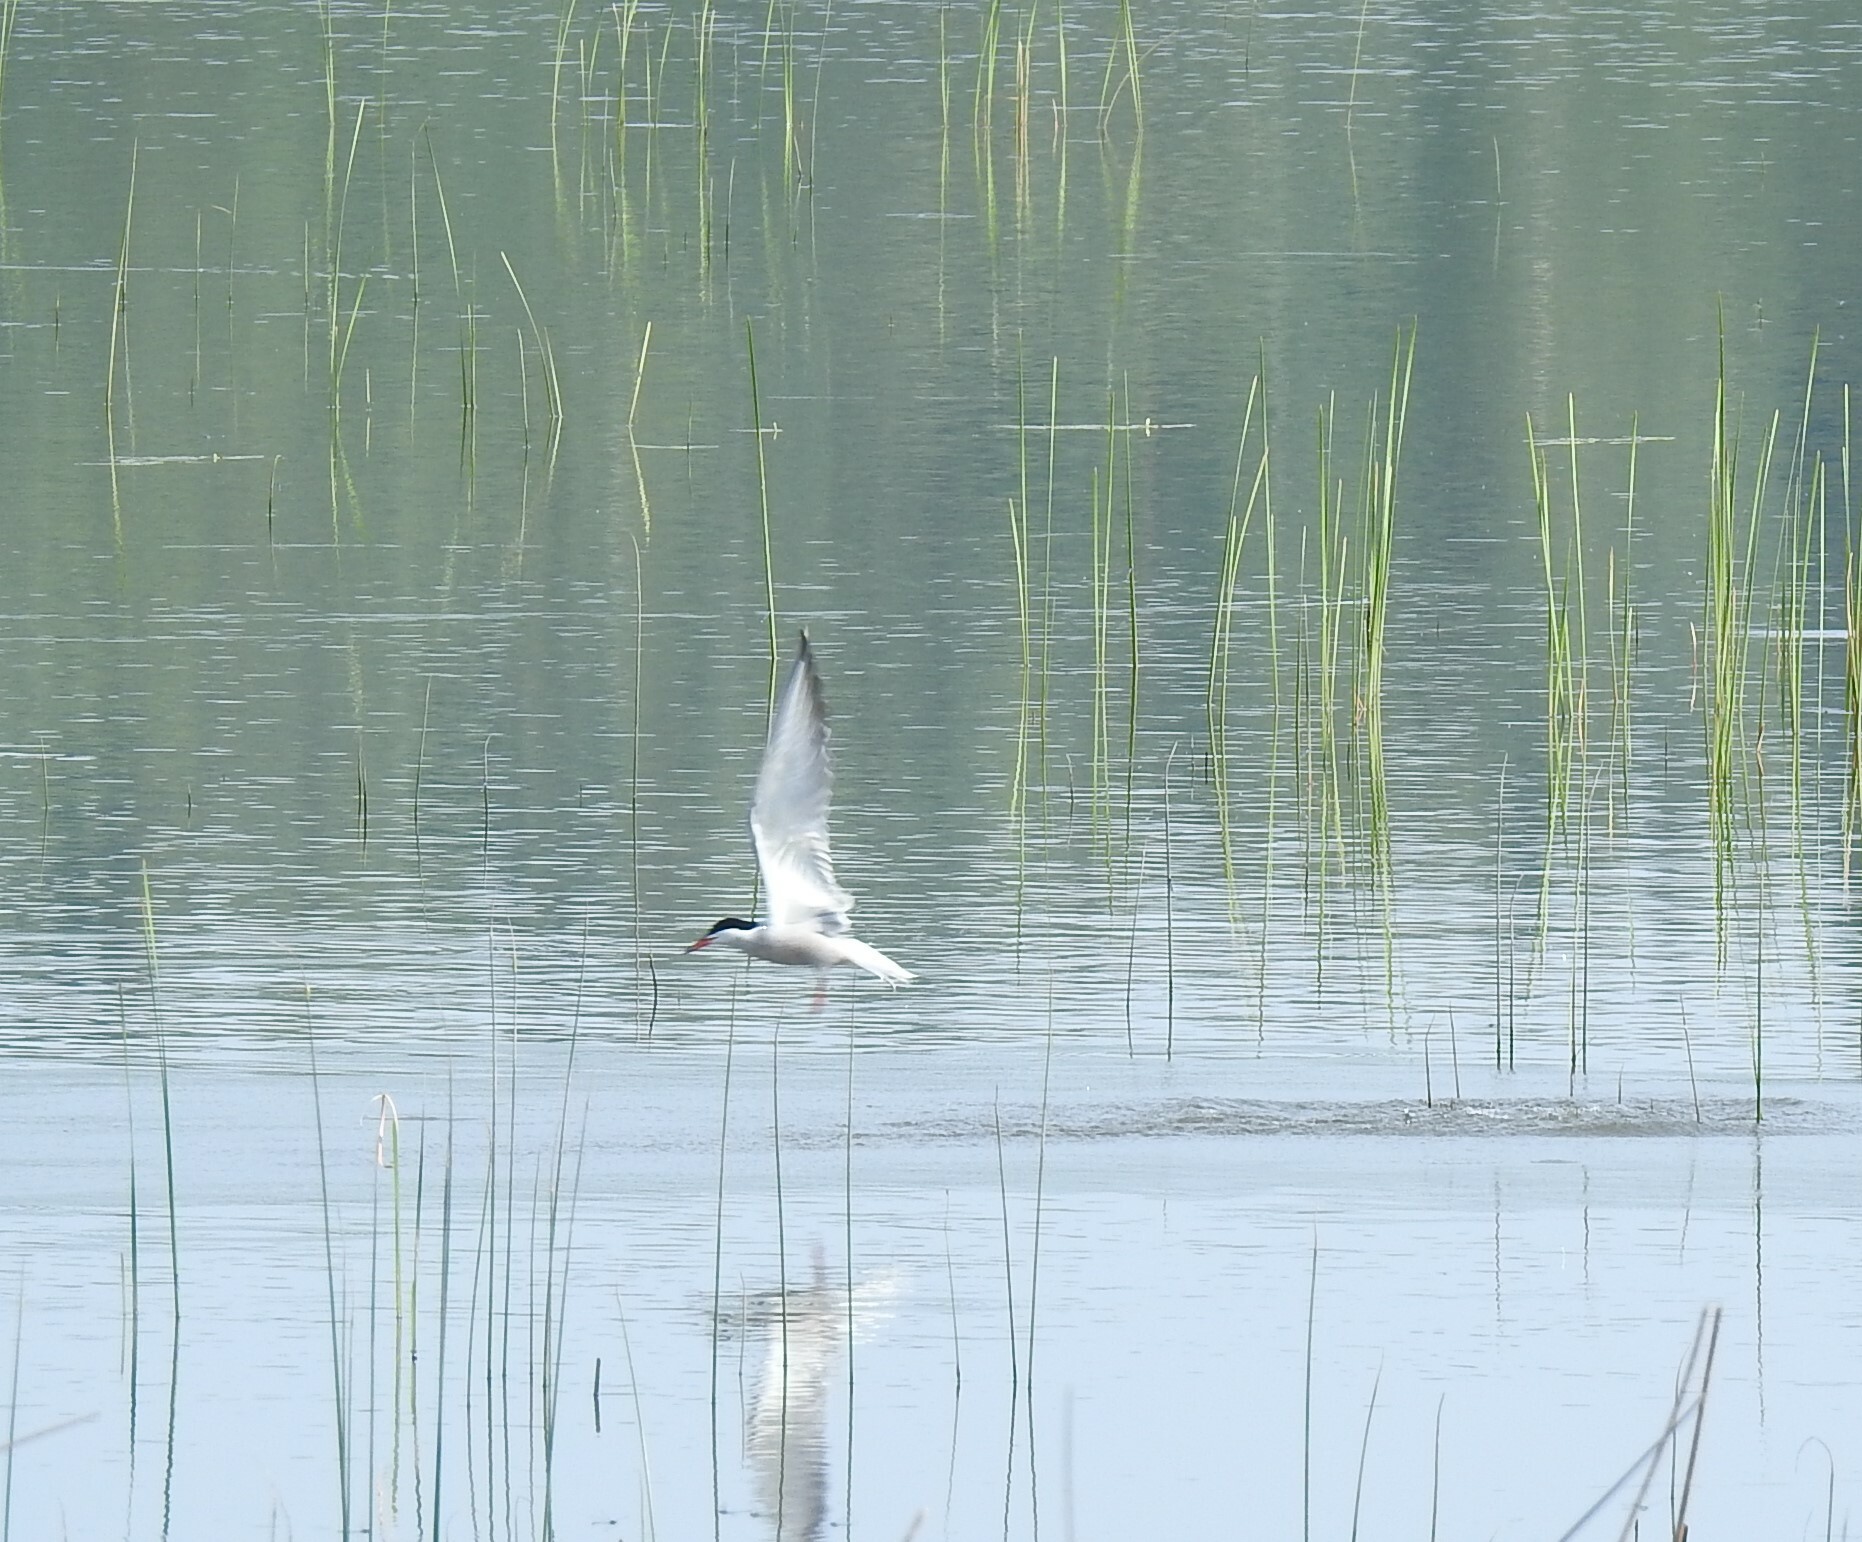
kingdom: Animalia
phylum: Chordata
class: Aves
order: Charadriiformes
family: Laridae
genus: Sterna
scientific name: Sterna hirundo
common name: Common tern
